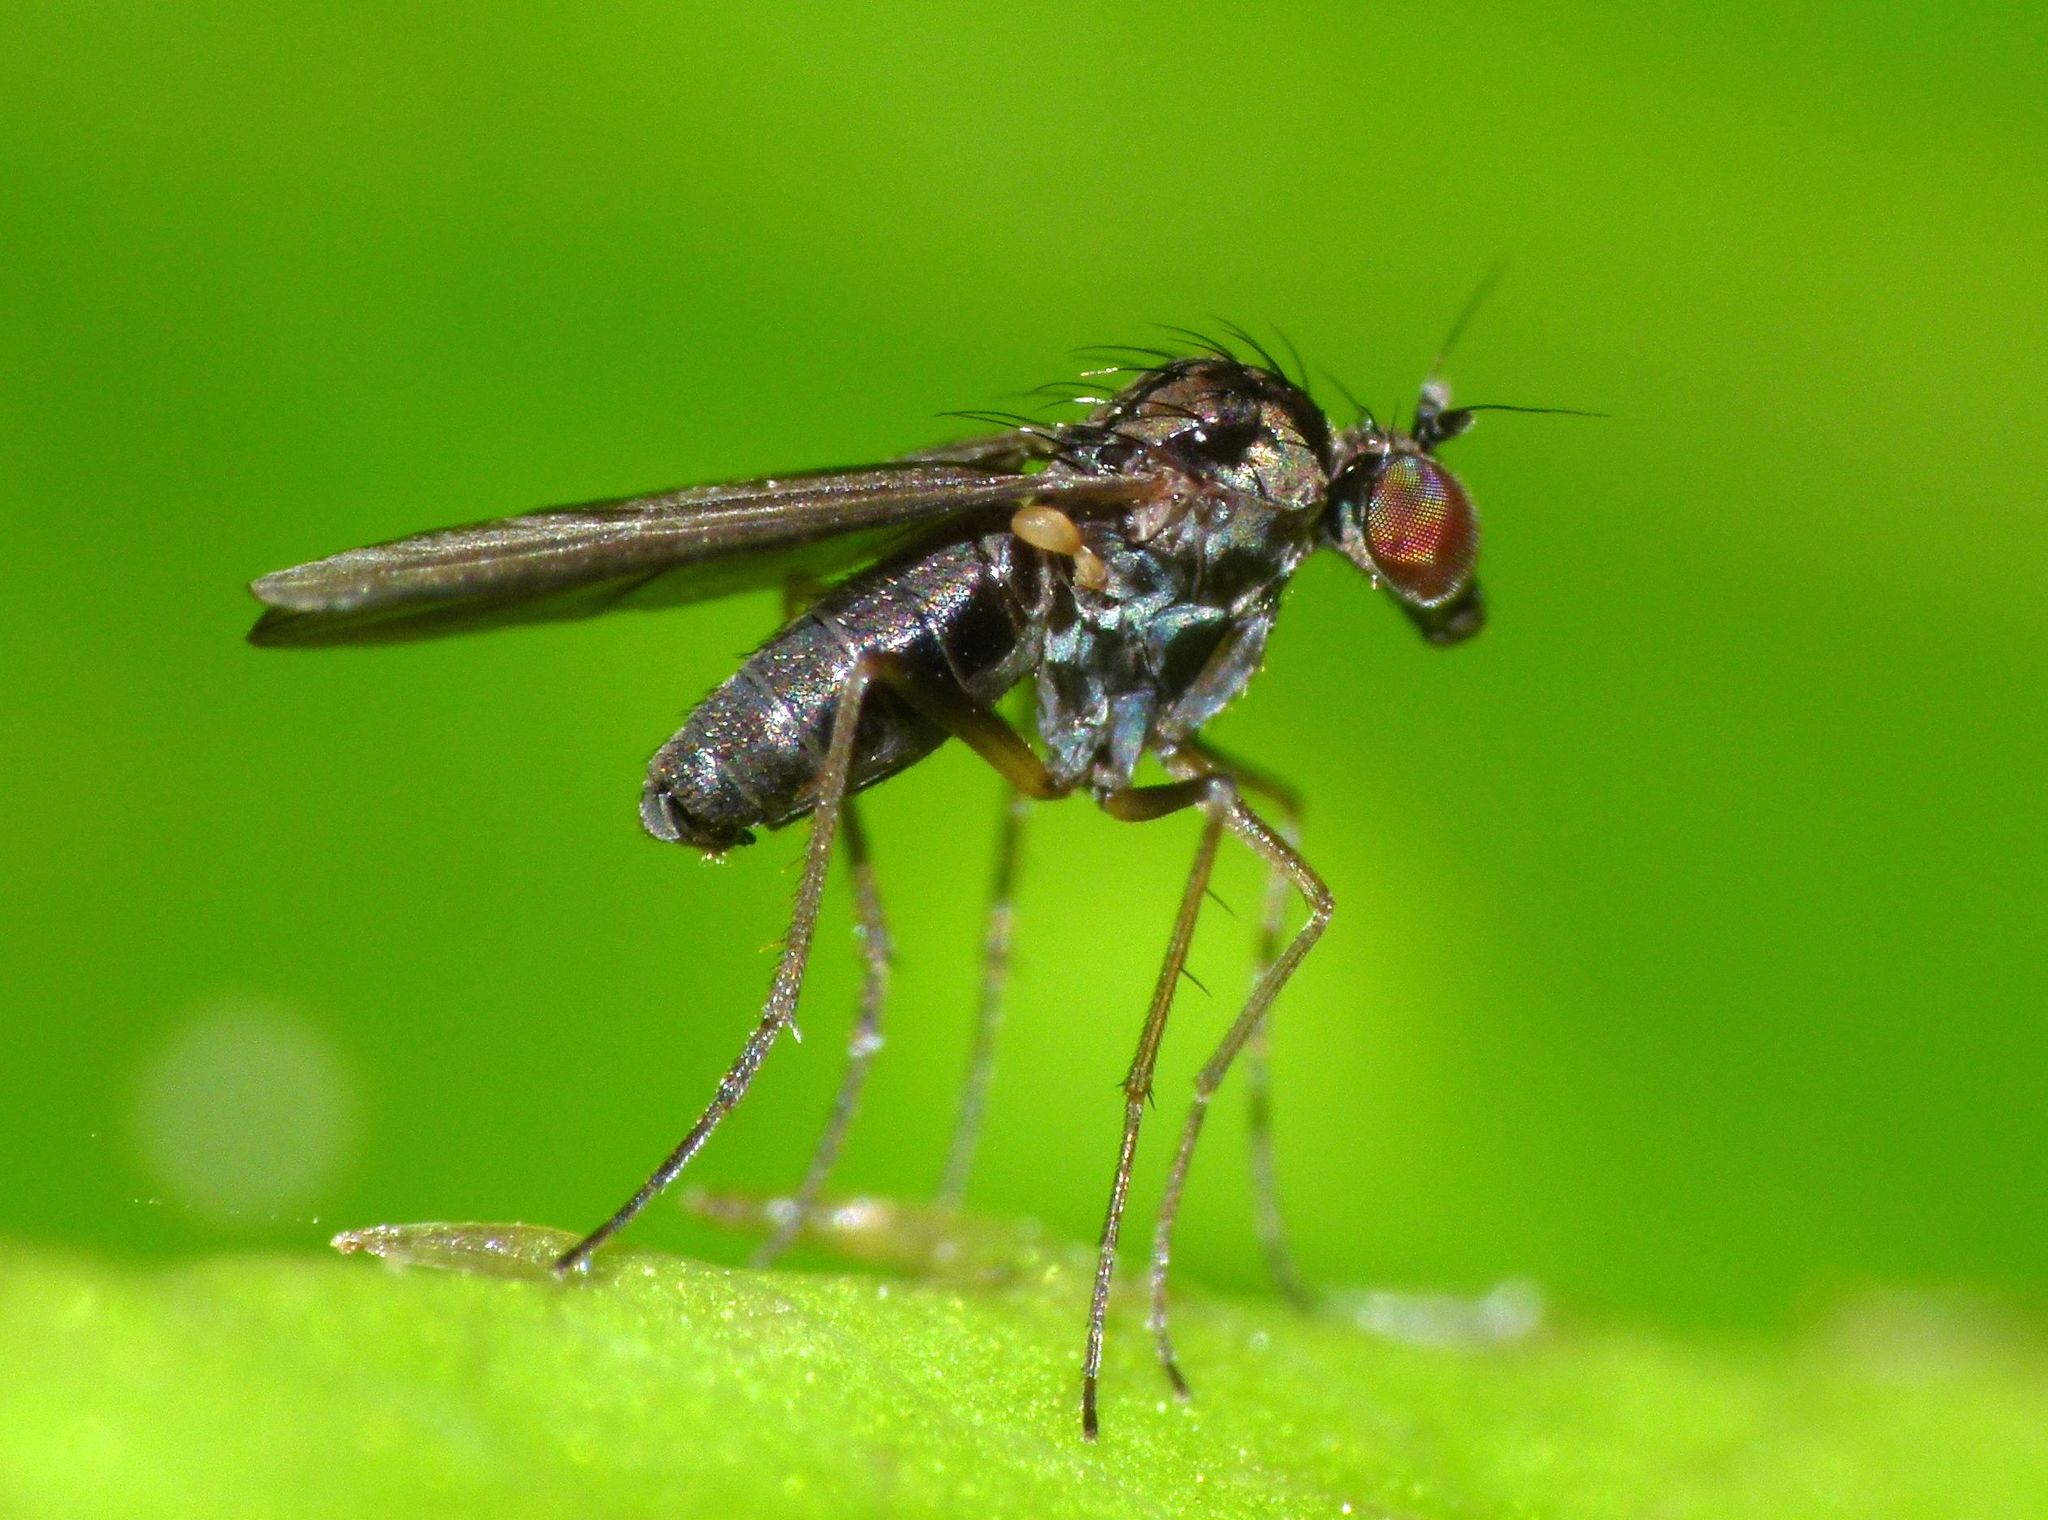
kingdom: Animalia
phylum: Arthropoda
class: Insecta
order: Diptera
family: Dolichopodidae
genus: Micropygus
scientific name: Micropygus vagans
